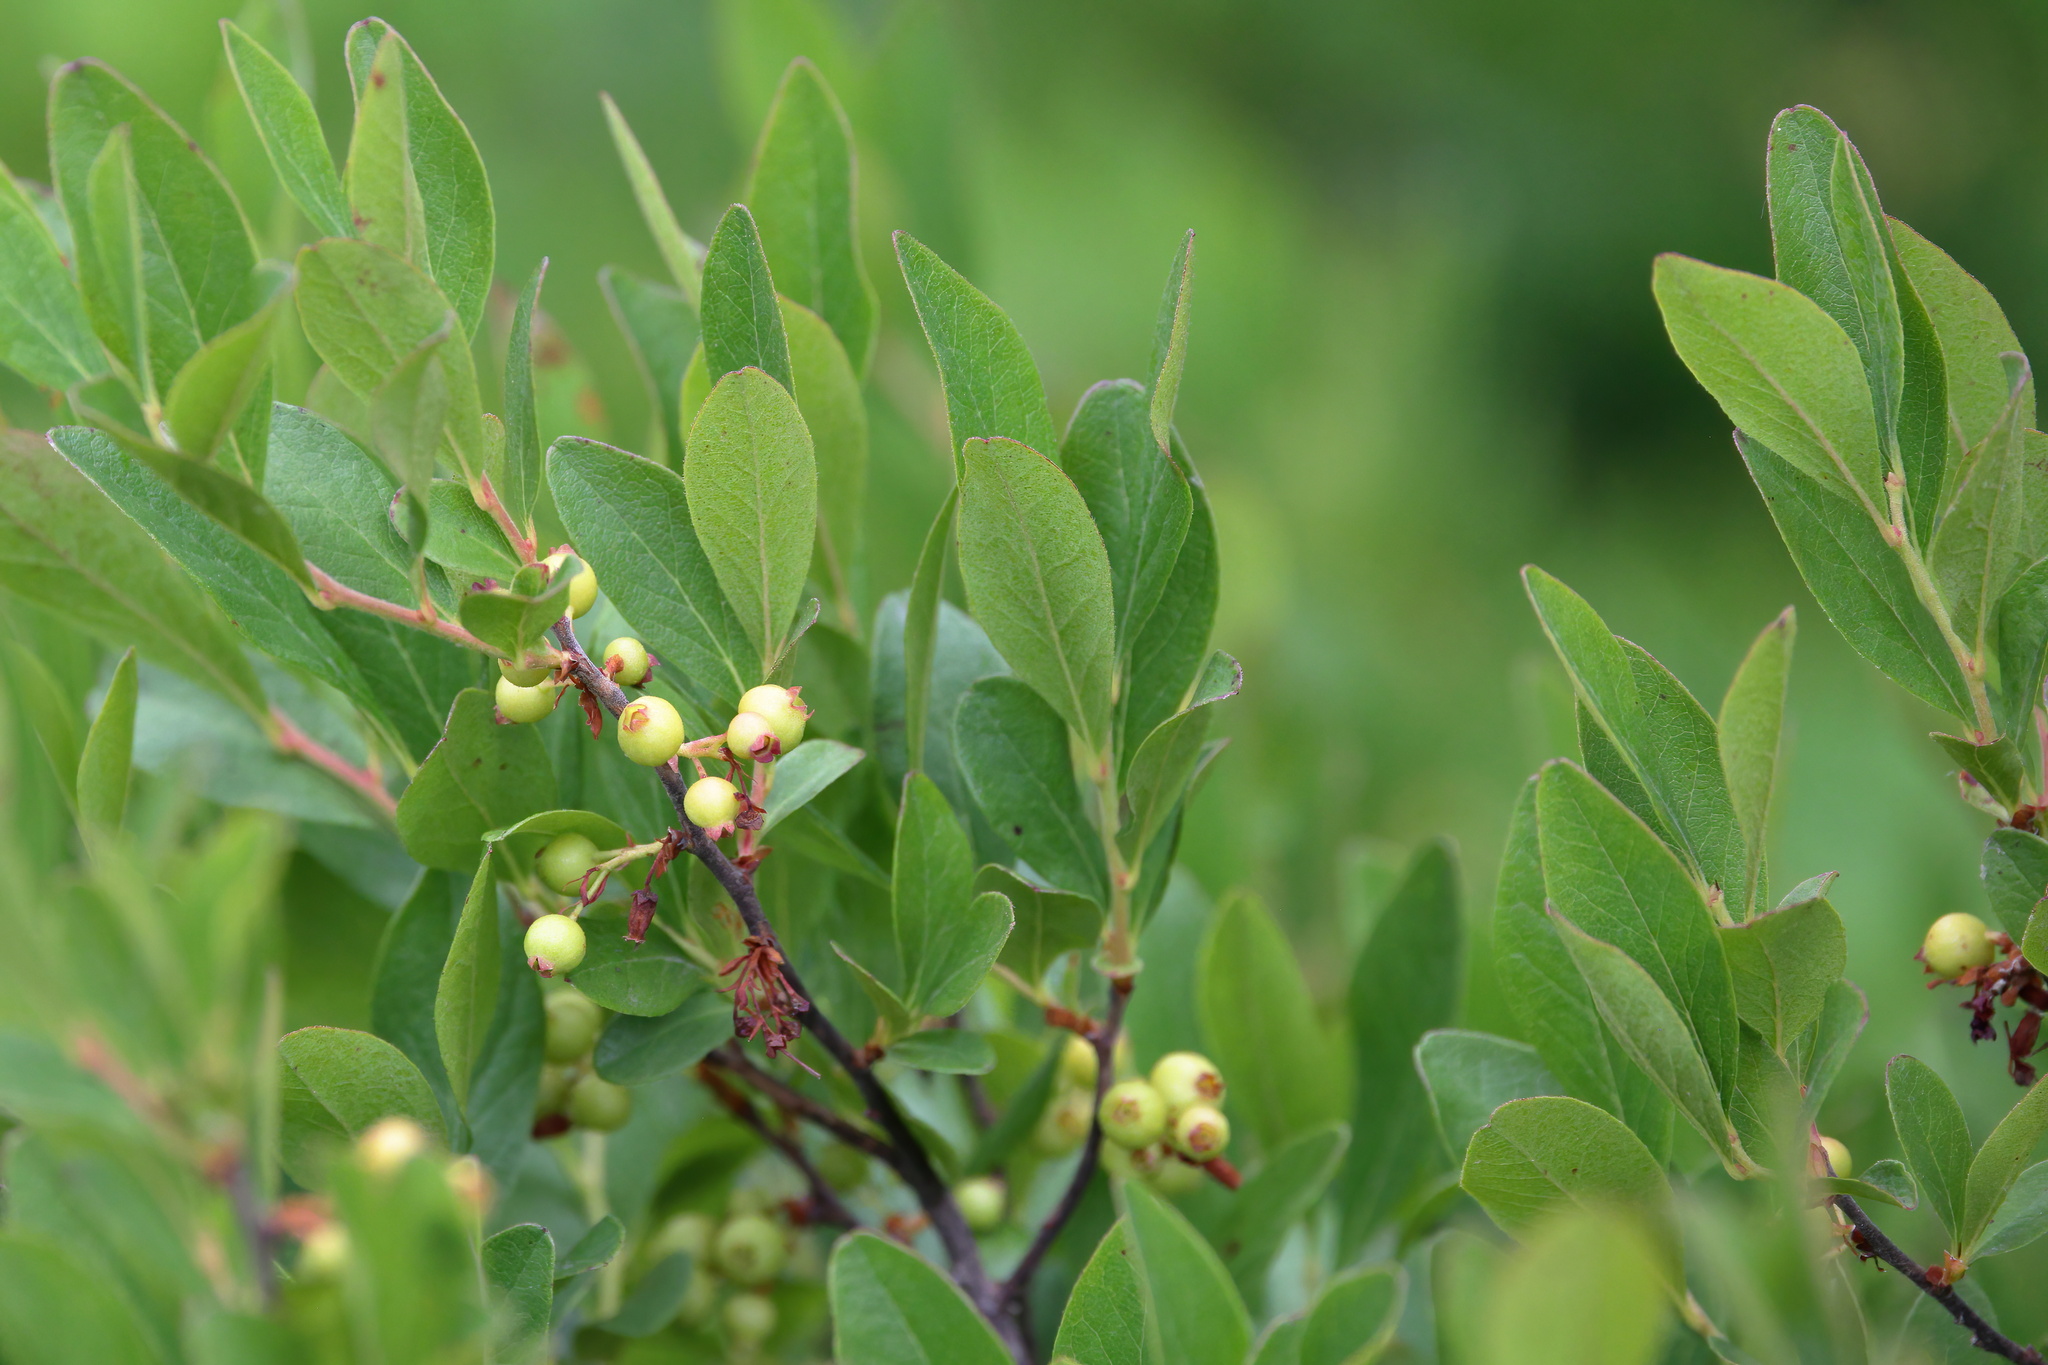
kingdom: Plantae
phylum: Tracheophyta
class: Magnoliopsida
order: Ericales
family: Ericaceae
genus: Gaylussacia
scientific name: Gaylussacia baccata
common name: Black huckleberry
